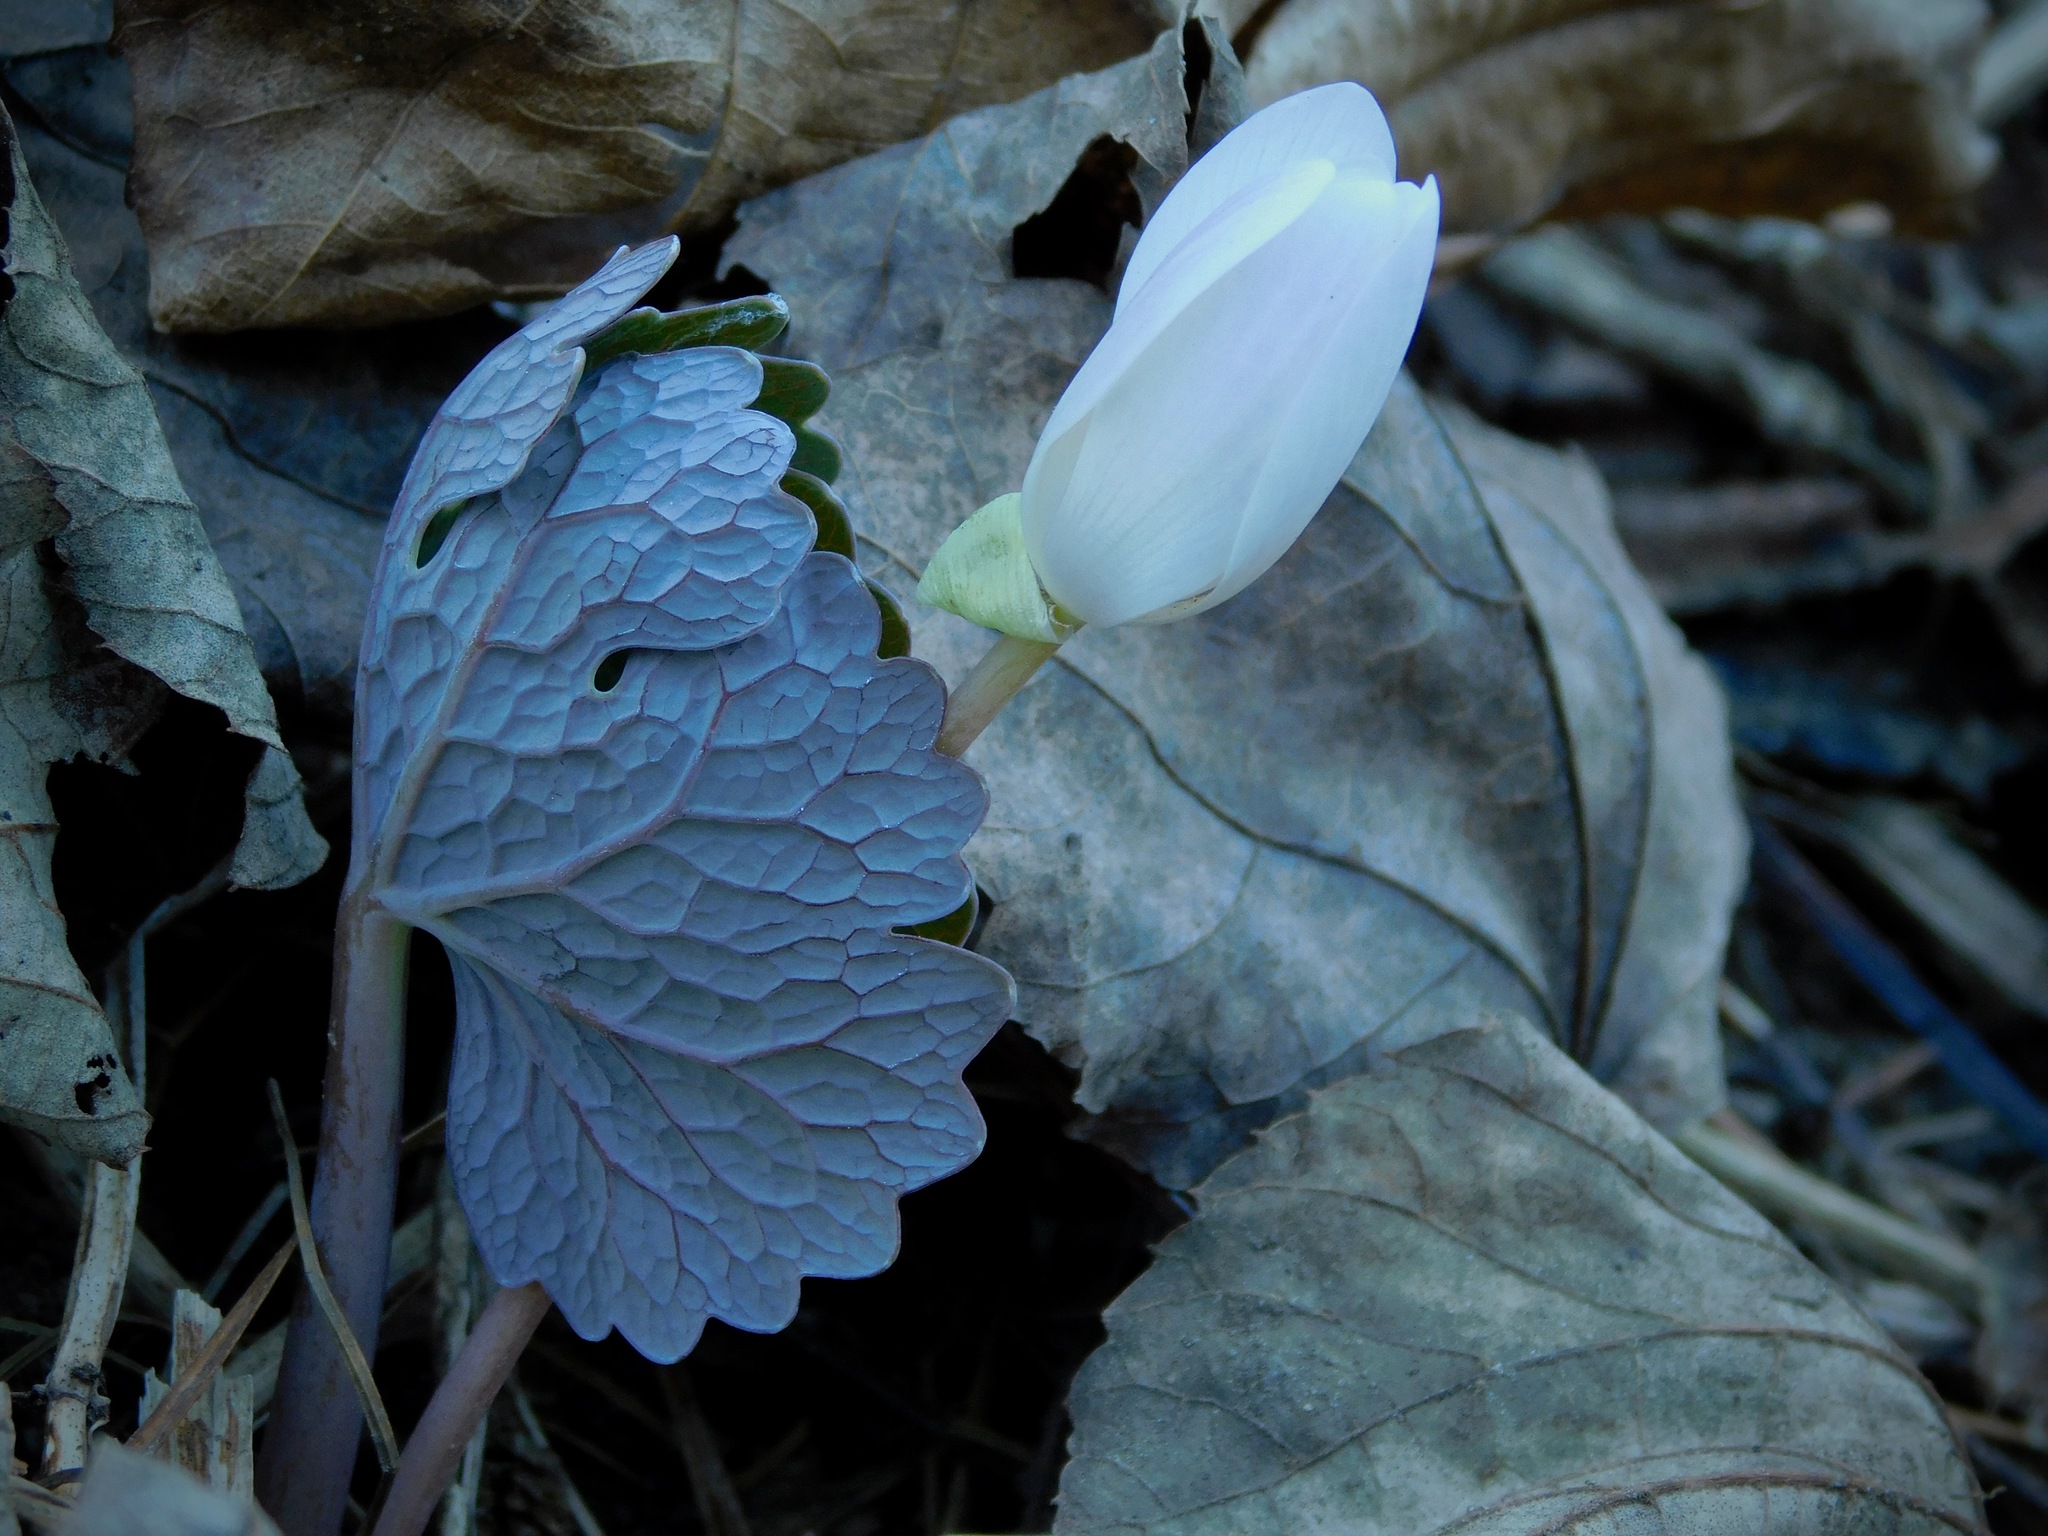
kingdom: Plantae
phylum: Tracheophyta
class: Magnoliopsida
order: Ranunculales
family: Papaveraceae
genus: Sanguinaria
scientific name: Sanguinaria canadensis
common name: Bloodroot
